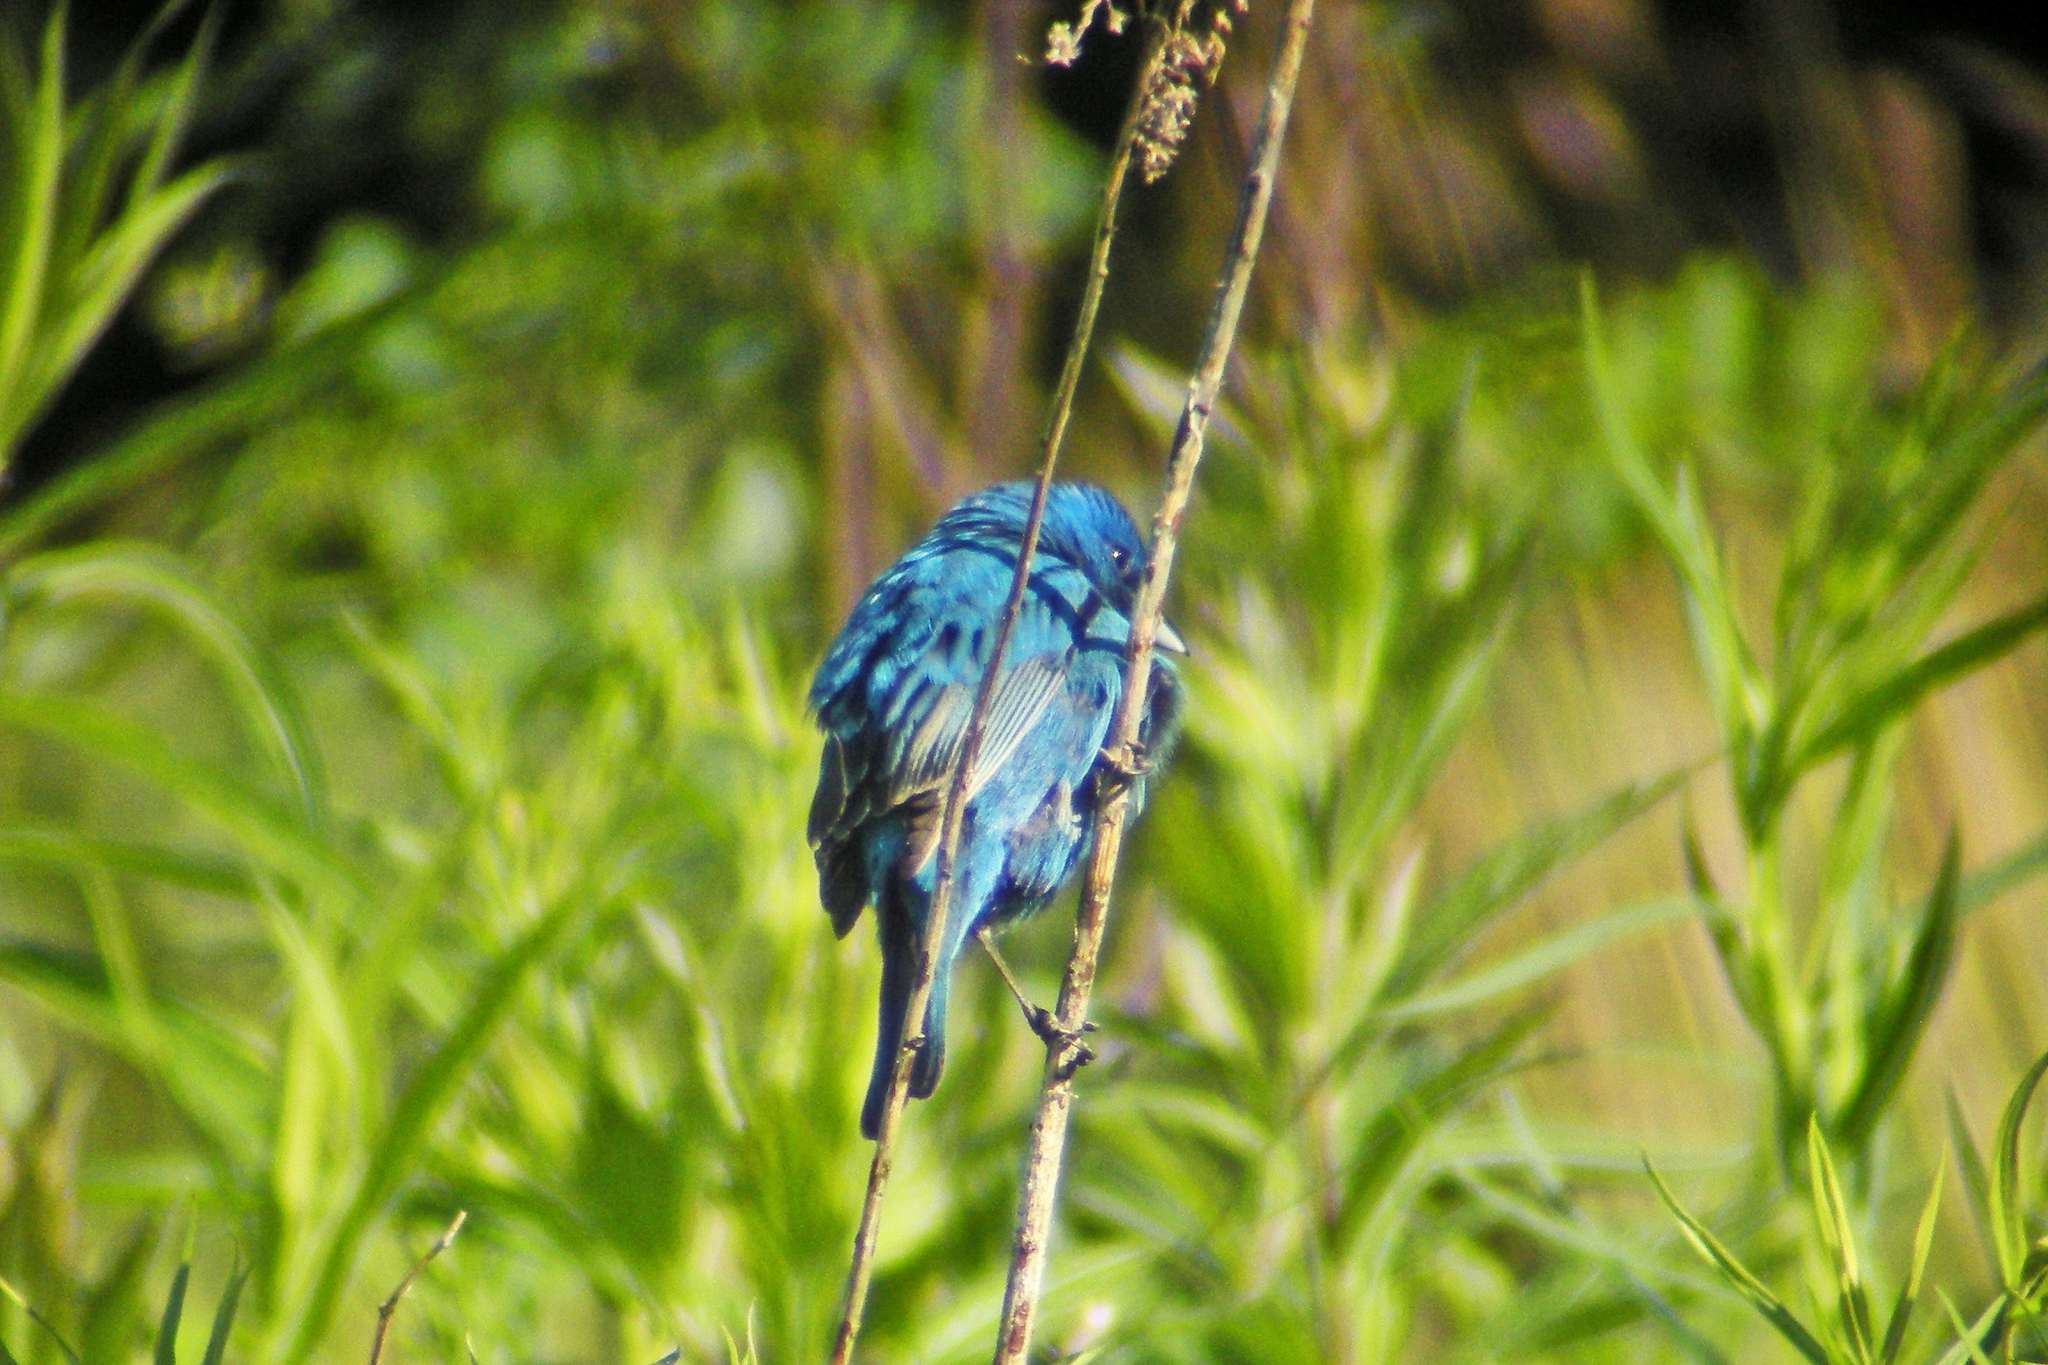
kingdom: Animalia
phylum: Chordata
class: Aves
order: Passeriformes
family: Cardinalidae
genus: Passerina
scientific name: Passerina cyanea
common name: Indigo bunting
